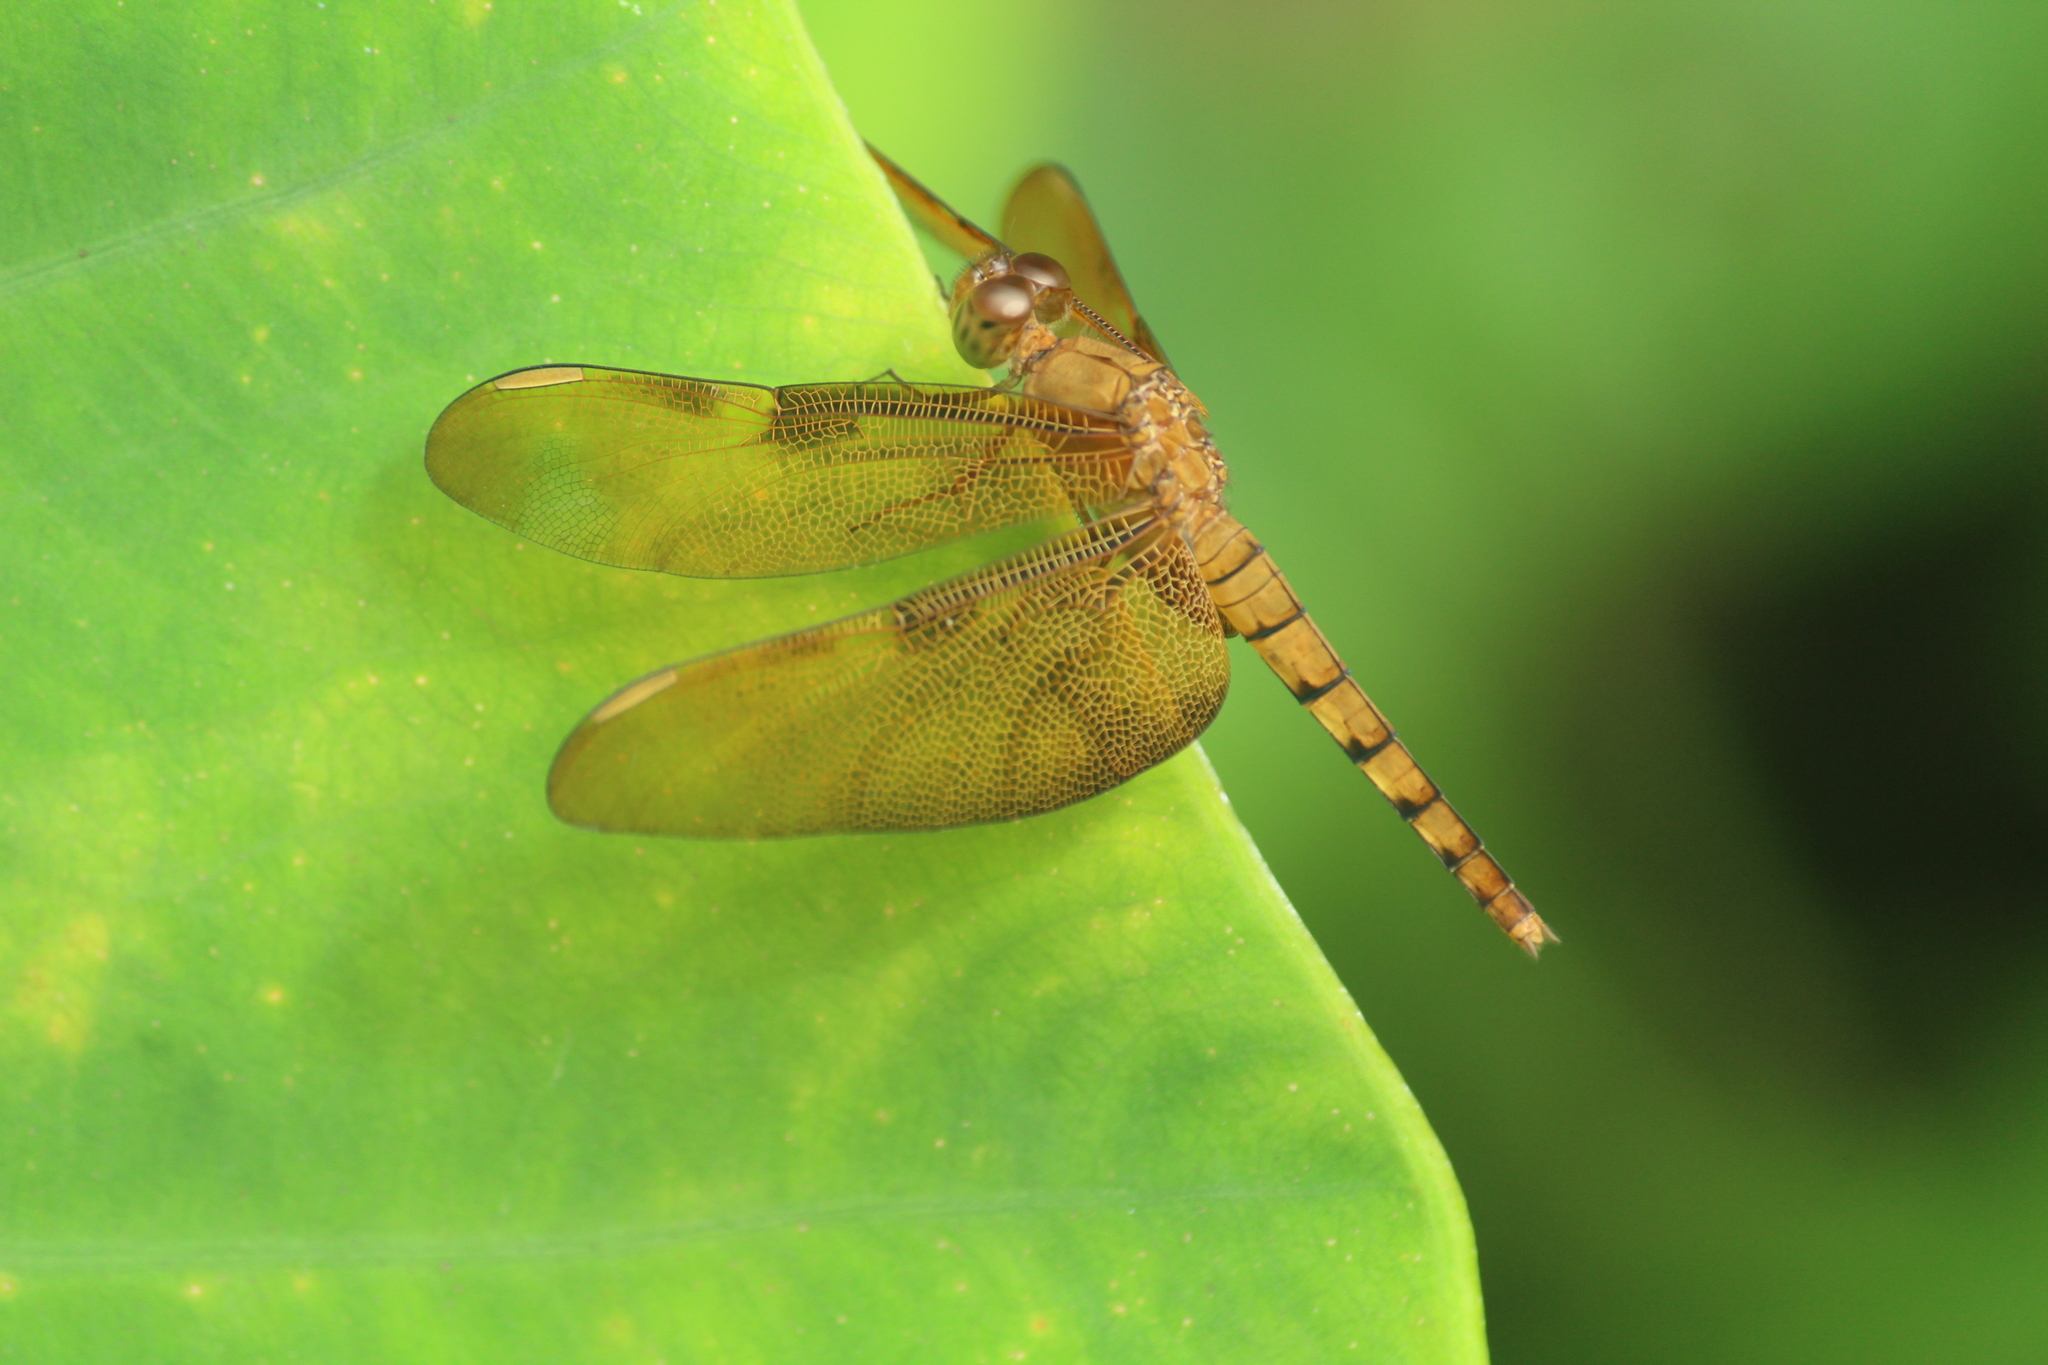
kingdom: Animalia
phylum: Arthropoda
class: Insecta
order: Odonata
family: Libellulidae
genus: Neurothemis
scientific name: Neurothemis fulvia
